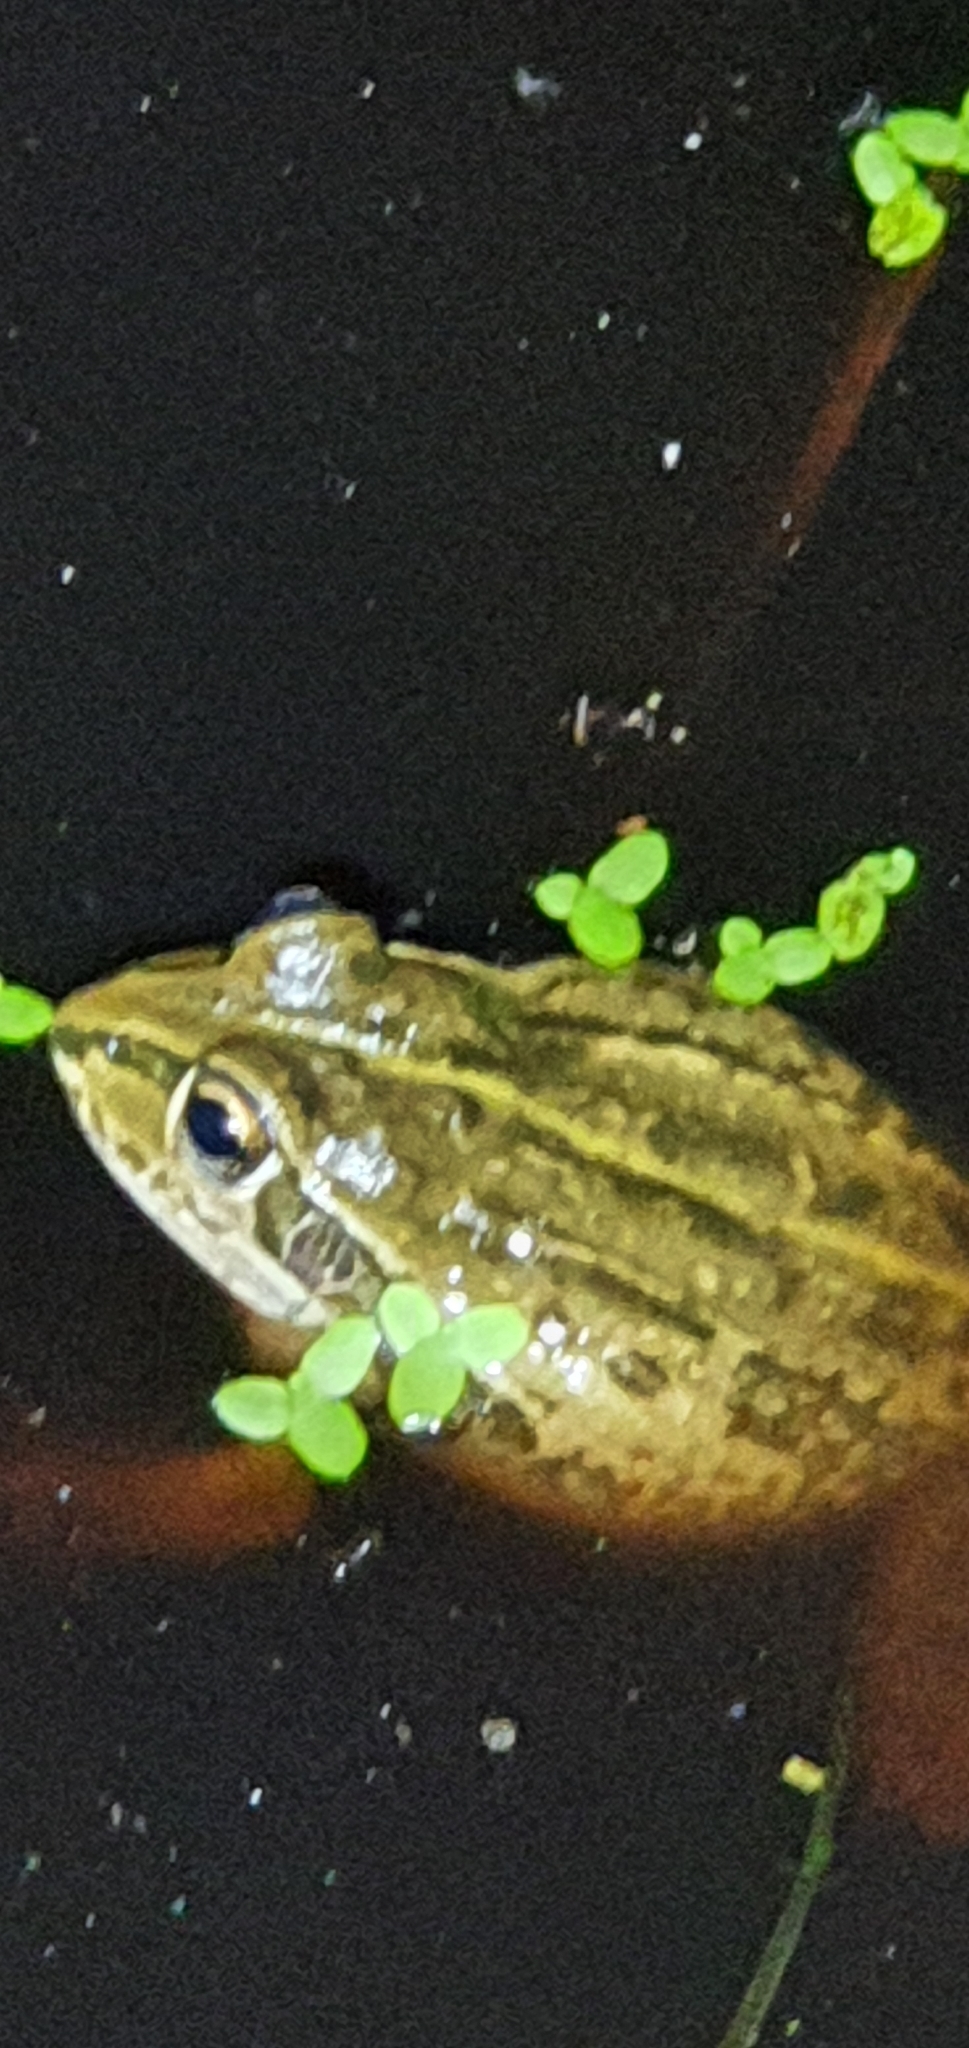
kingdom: Animalia
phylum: Chordata
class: Amphibia
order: Anura
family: Pelodryadidae
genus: Ranoidea
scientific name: Ranoidea alboguttata
